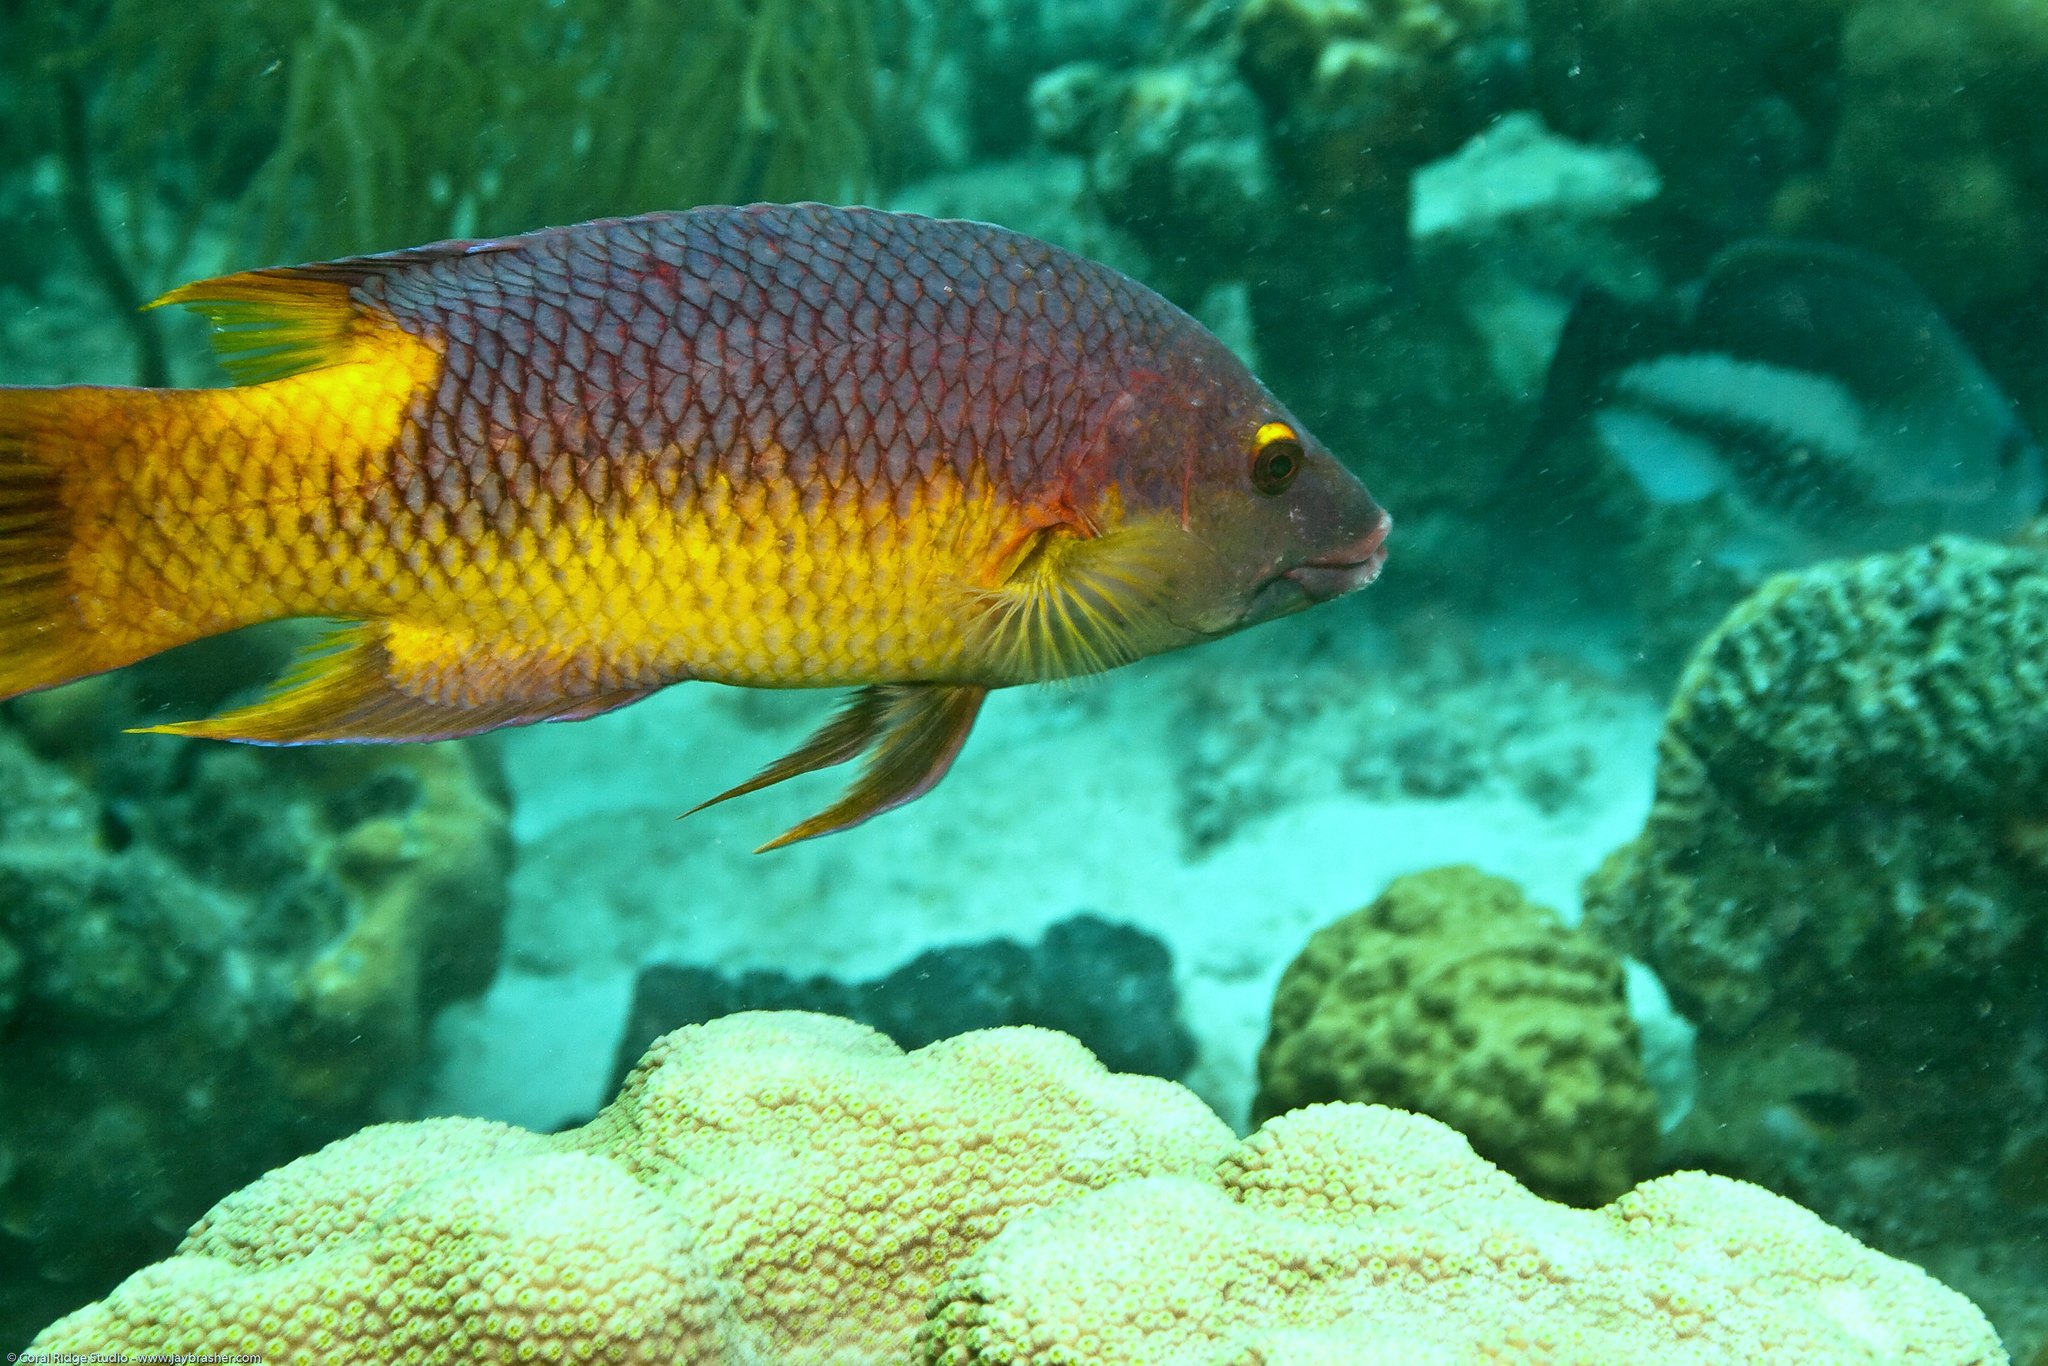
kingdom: Animalia
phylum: Chordata
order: Perciformes
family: Labridae
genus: Bodianus
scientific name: Bodianus rufus
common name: Spanish hogfish
